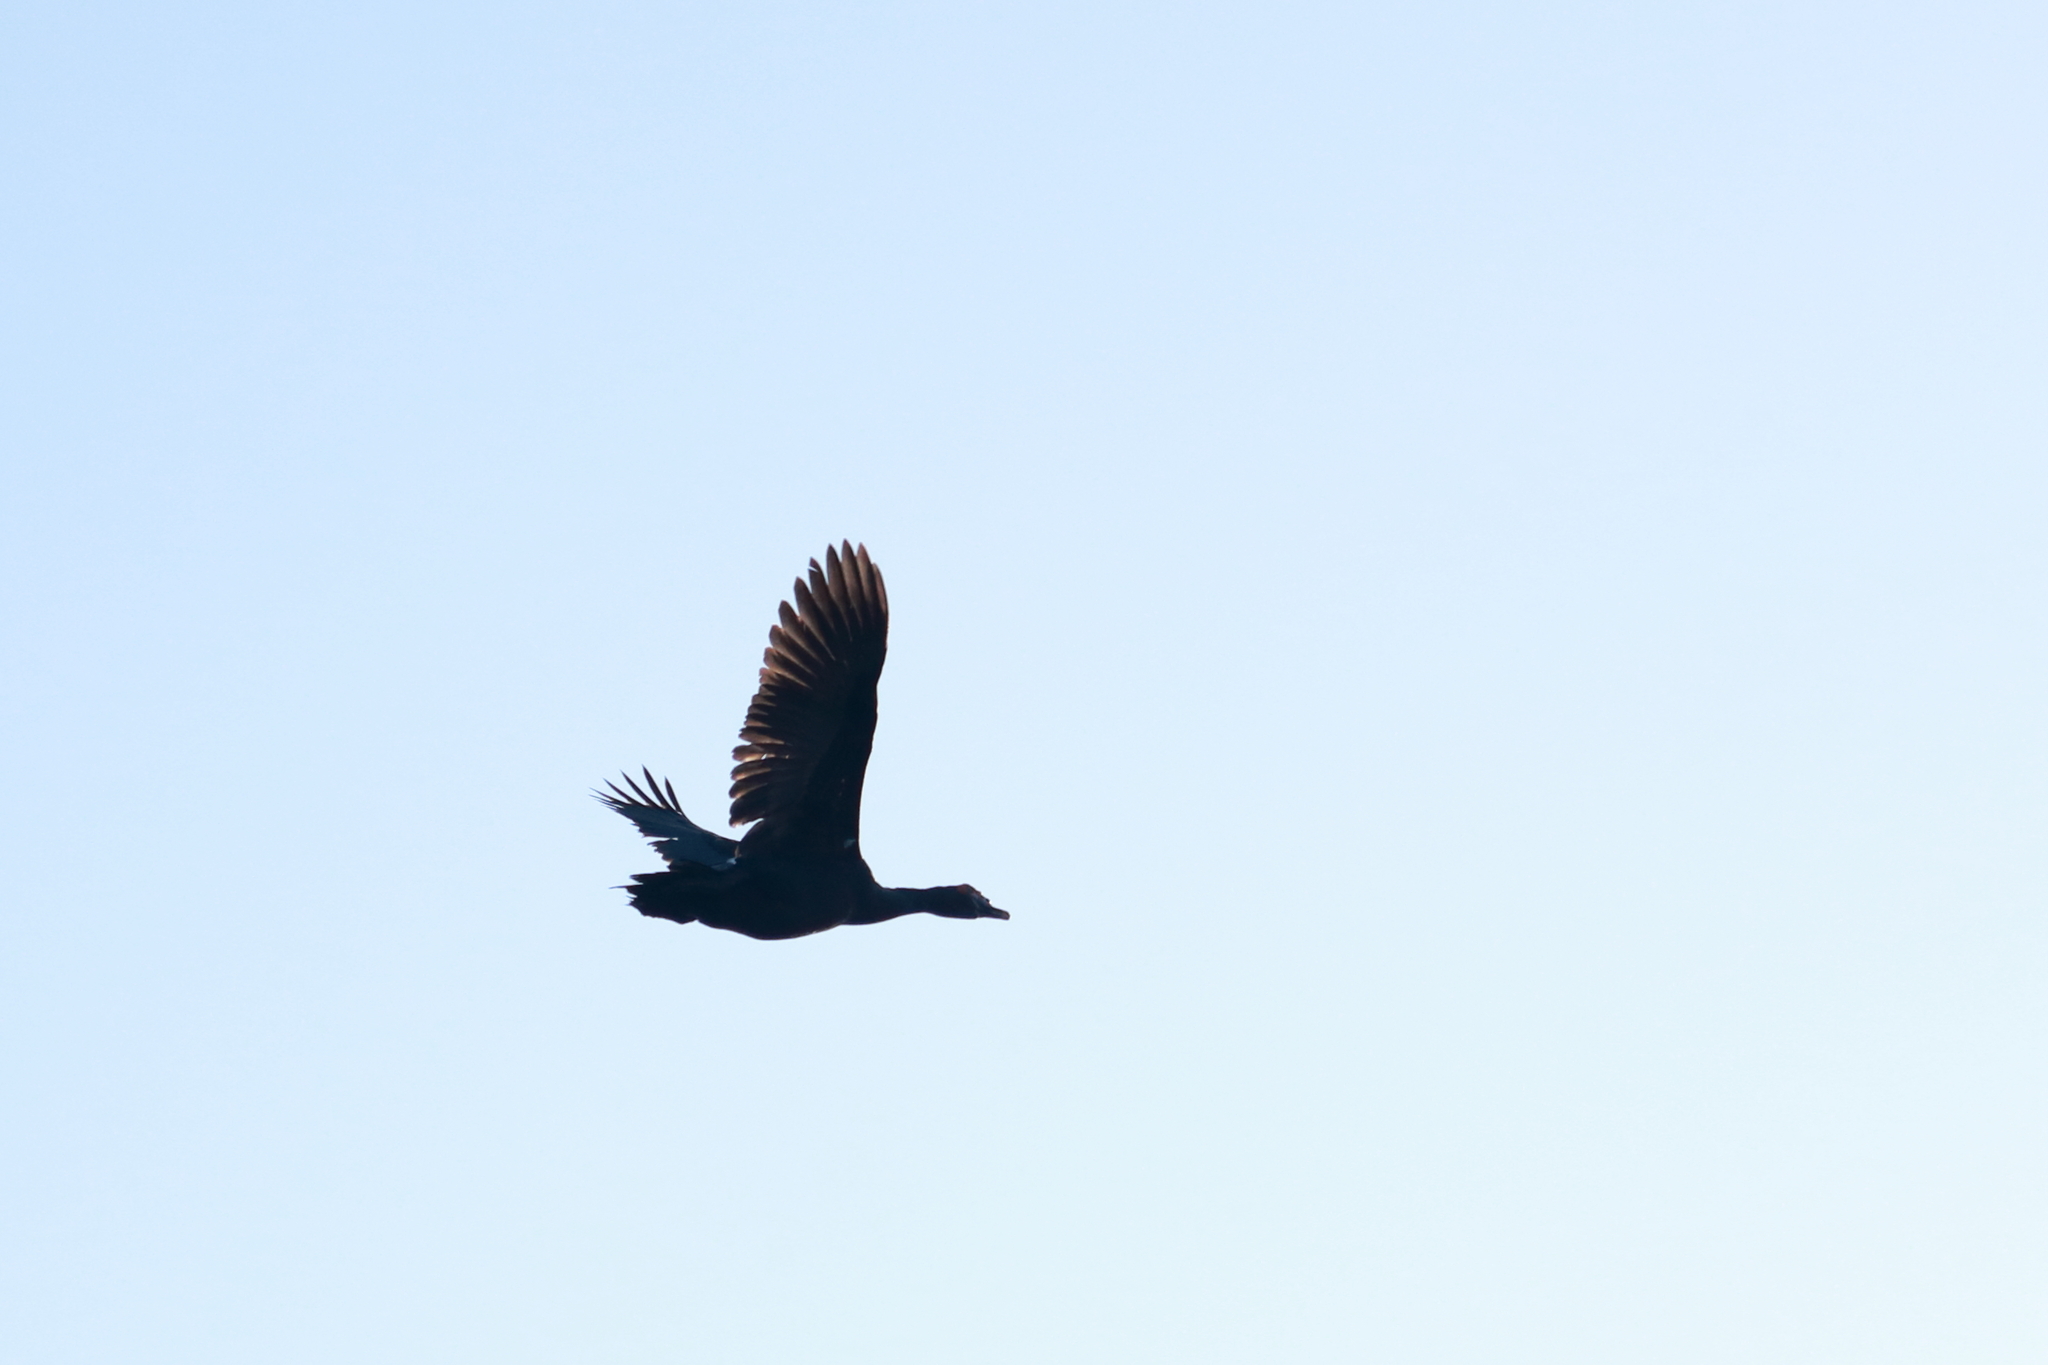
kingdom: Animalia
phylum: Chordata
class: Aves
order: Anseriformes
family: Anatidae
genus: Cairina
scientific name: Cairina moschata
